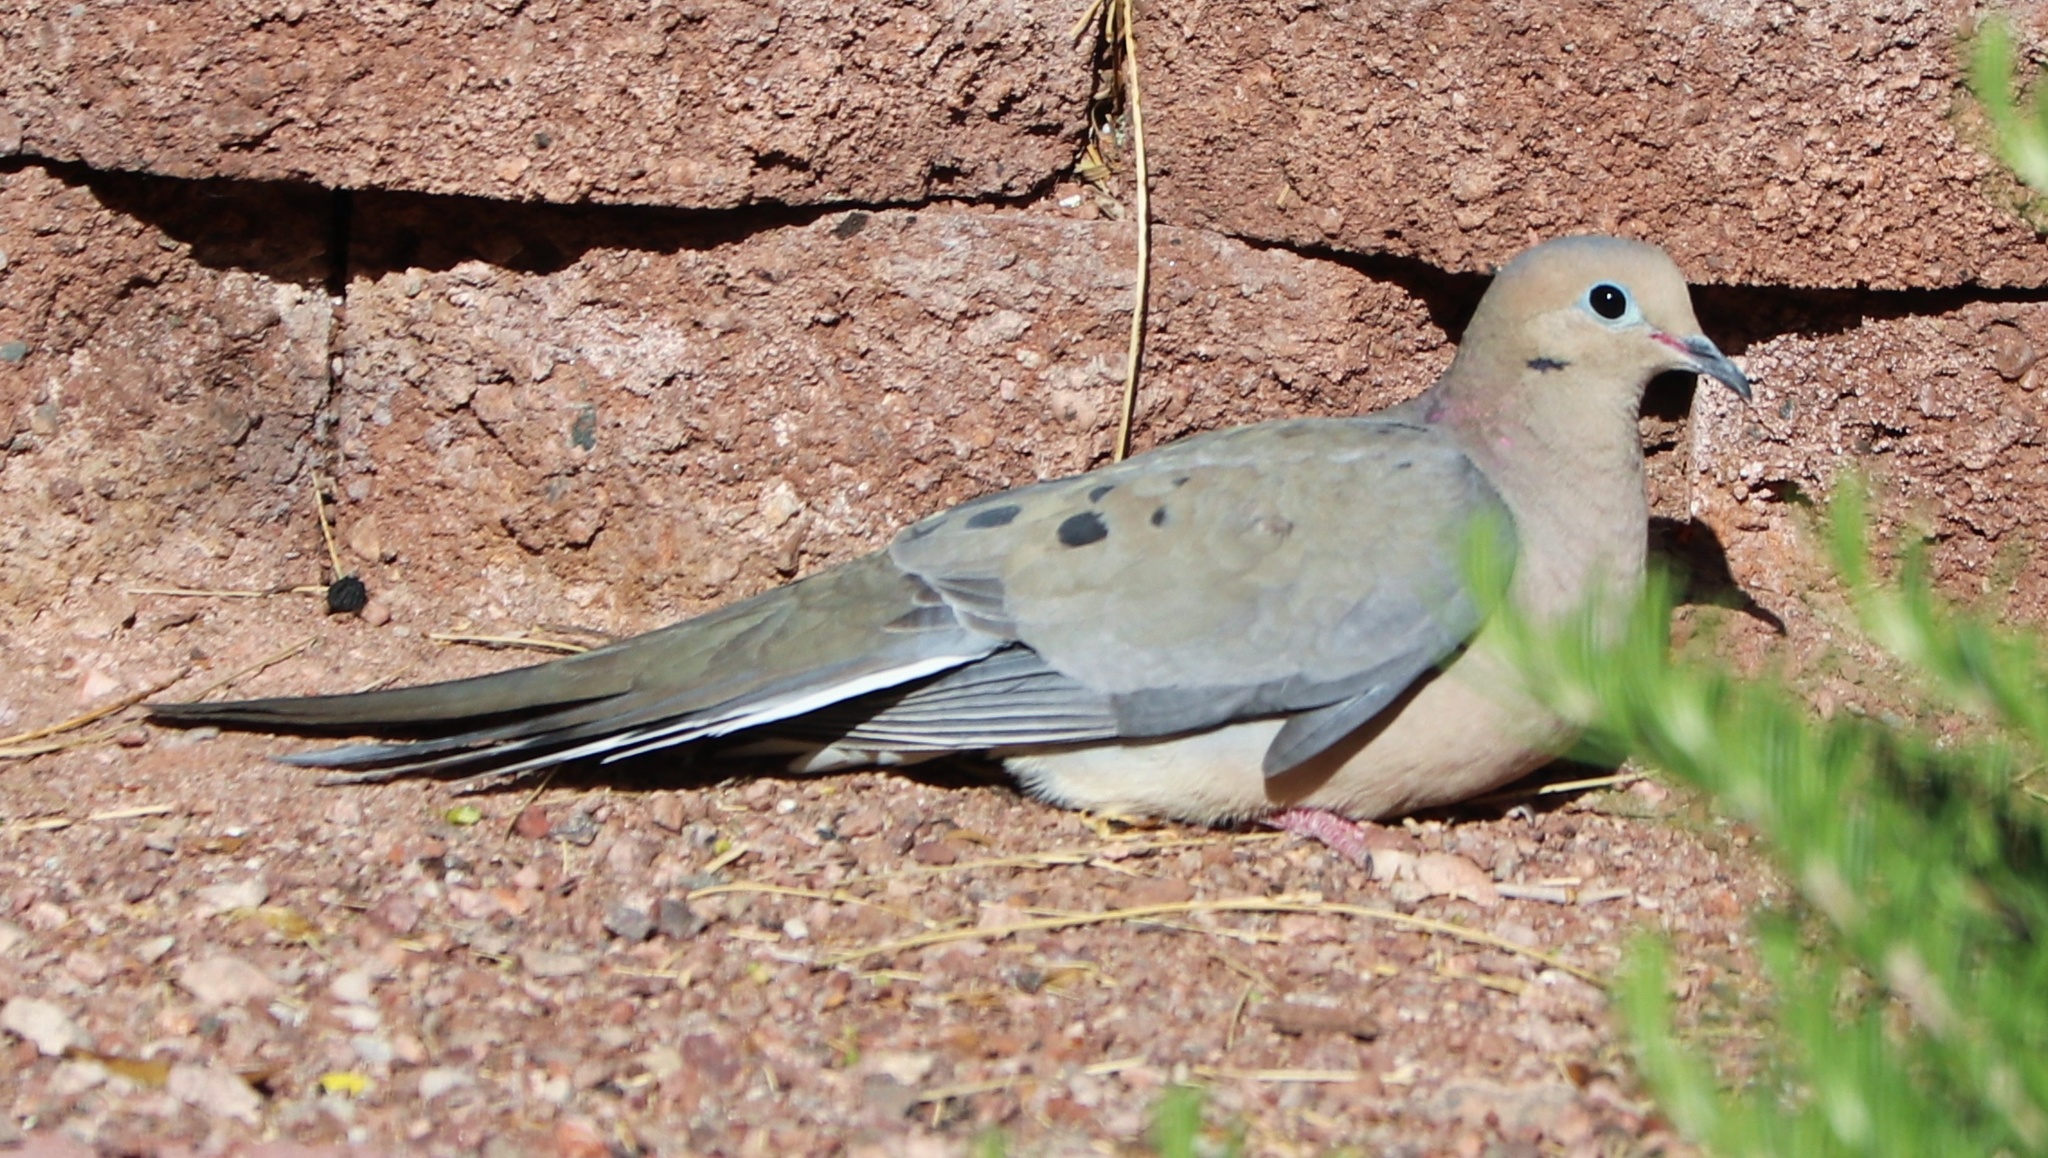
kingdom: Animalia
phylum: Chordata
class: Aves
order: Columbiformes
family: Columbidae
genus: Zenaida
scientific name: Zenaida macroura
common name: Mourning dove
